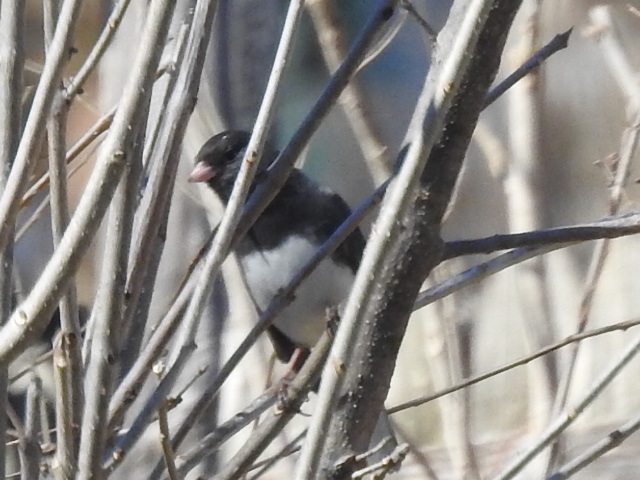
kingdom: Animalia
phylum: Chordata
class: Aves
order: Passeriformes
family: Passerellidae
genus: Junco
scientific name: Junco hyemalis
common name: Dark-eyed junco
